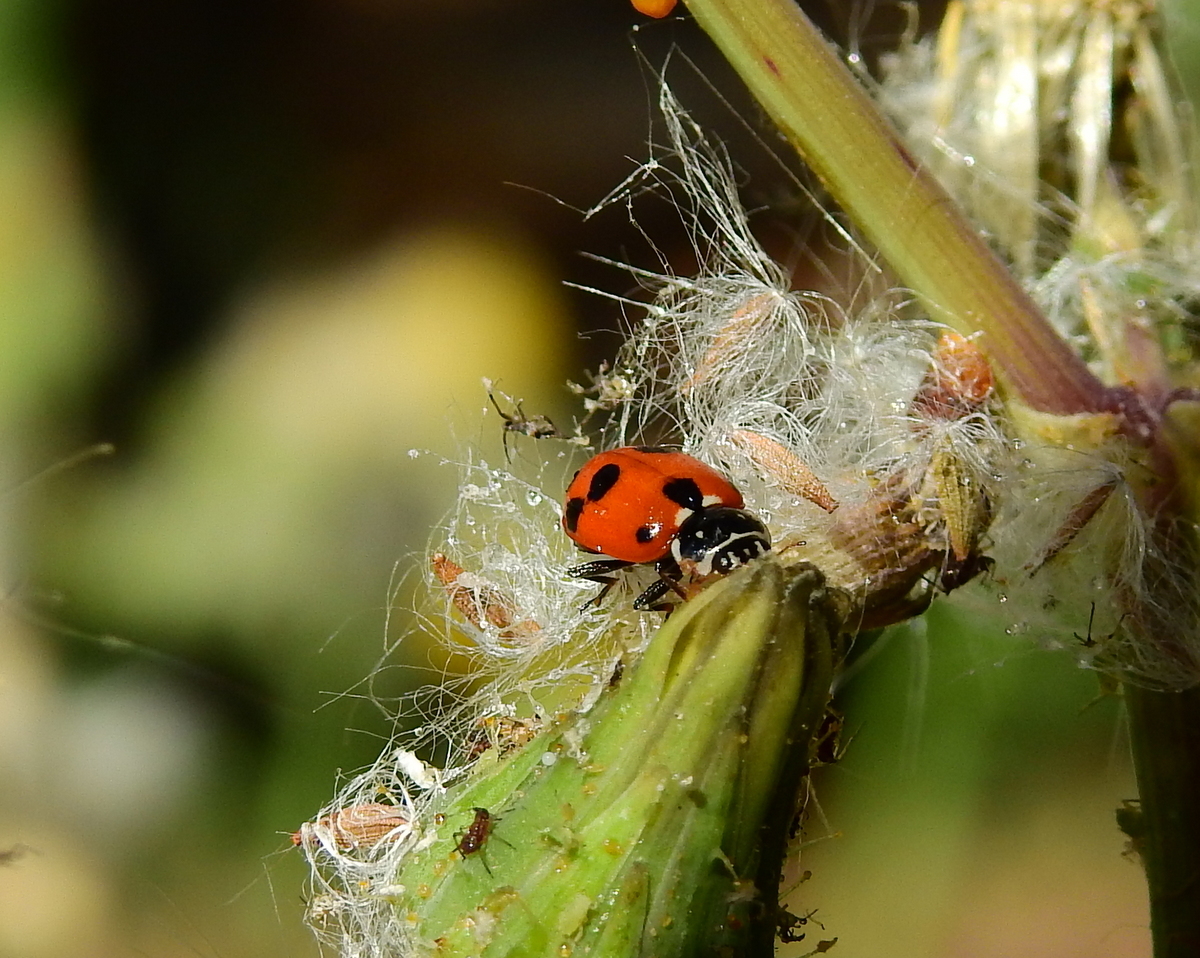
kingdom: Animalia
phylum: Arthropoda
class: Insecta
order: Coleoptera
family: Coccinellidae
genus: Hippodamia
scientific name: Hippodamia variegata
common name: Ladybird beetle
